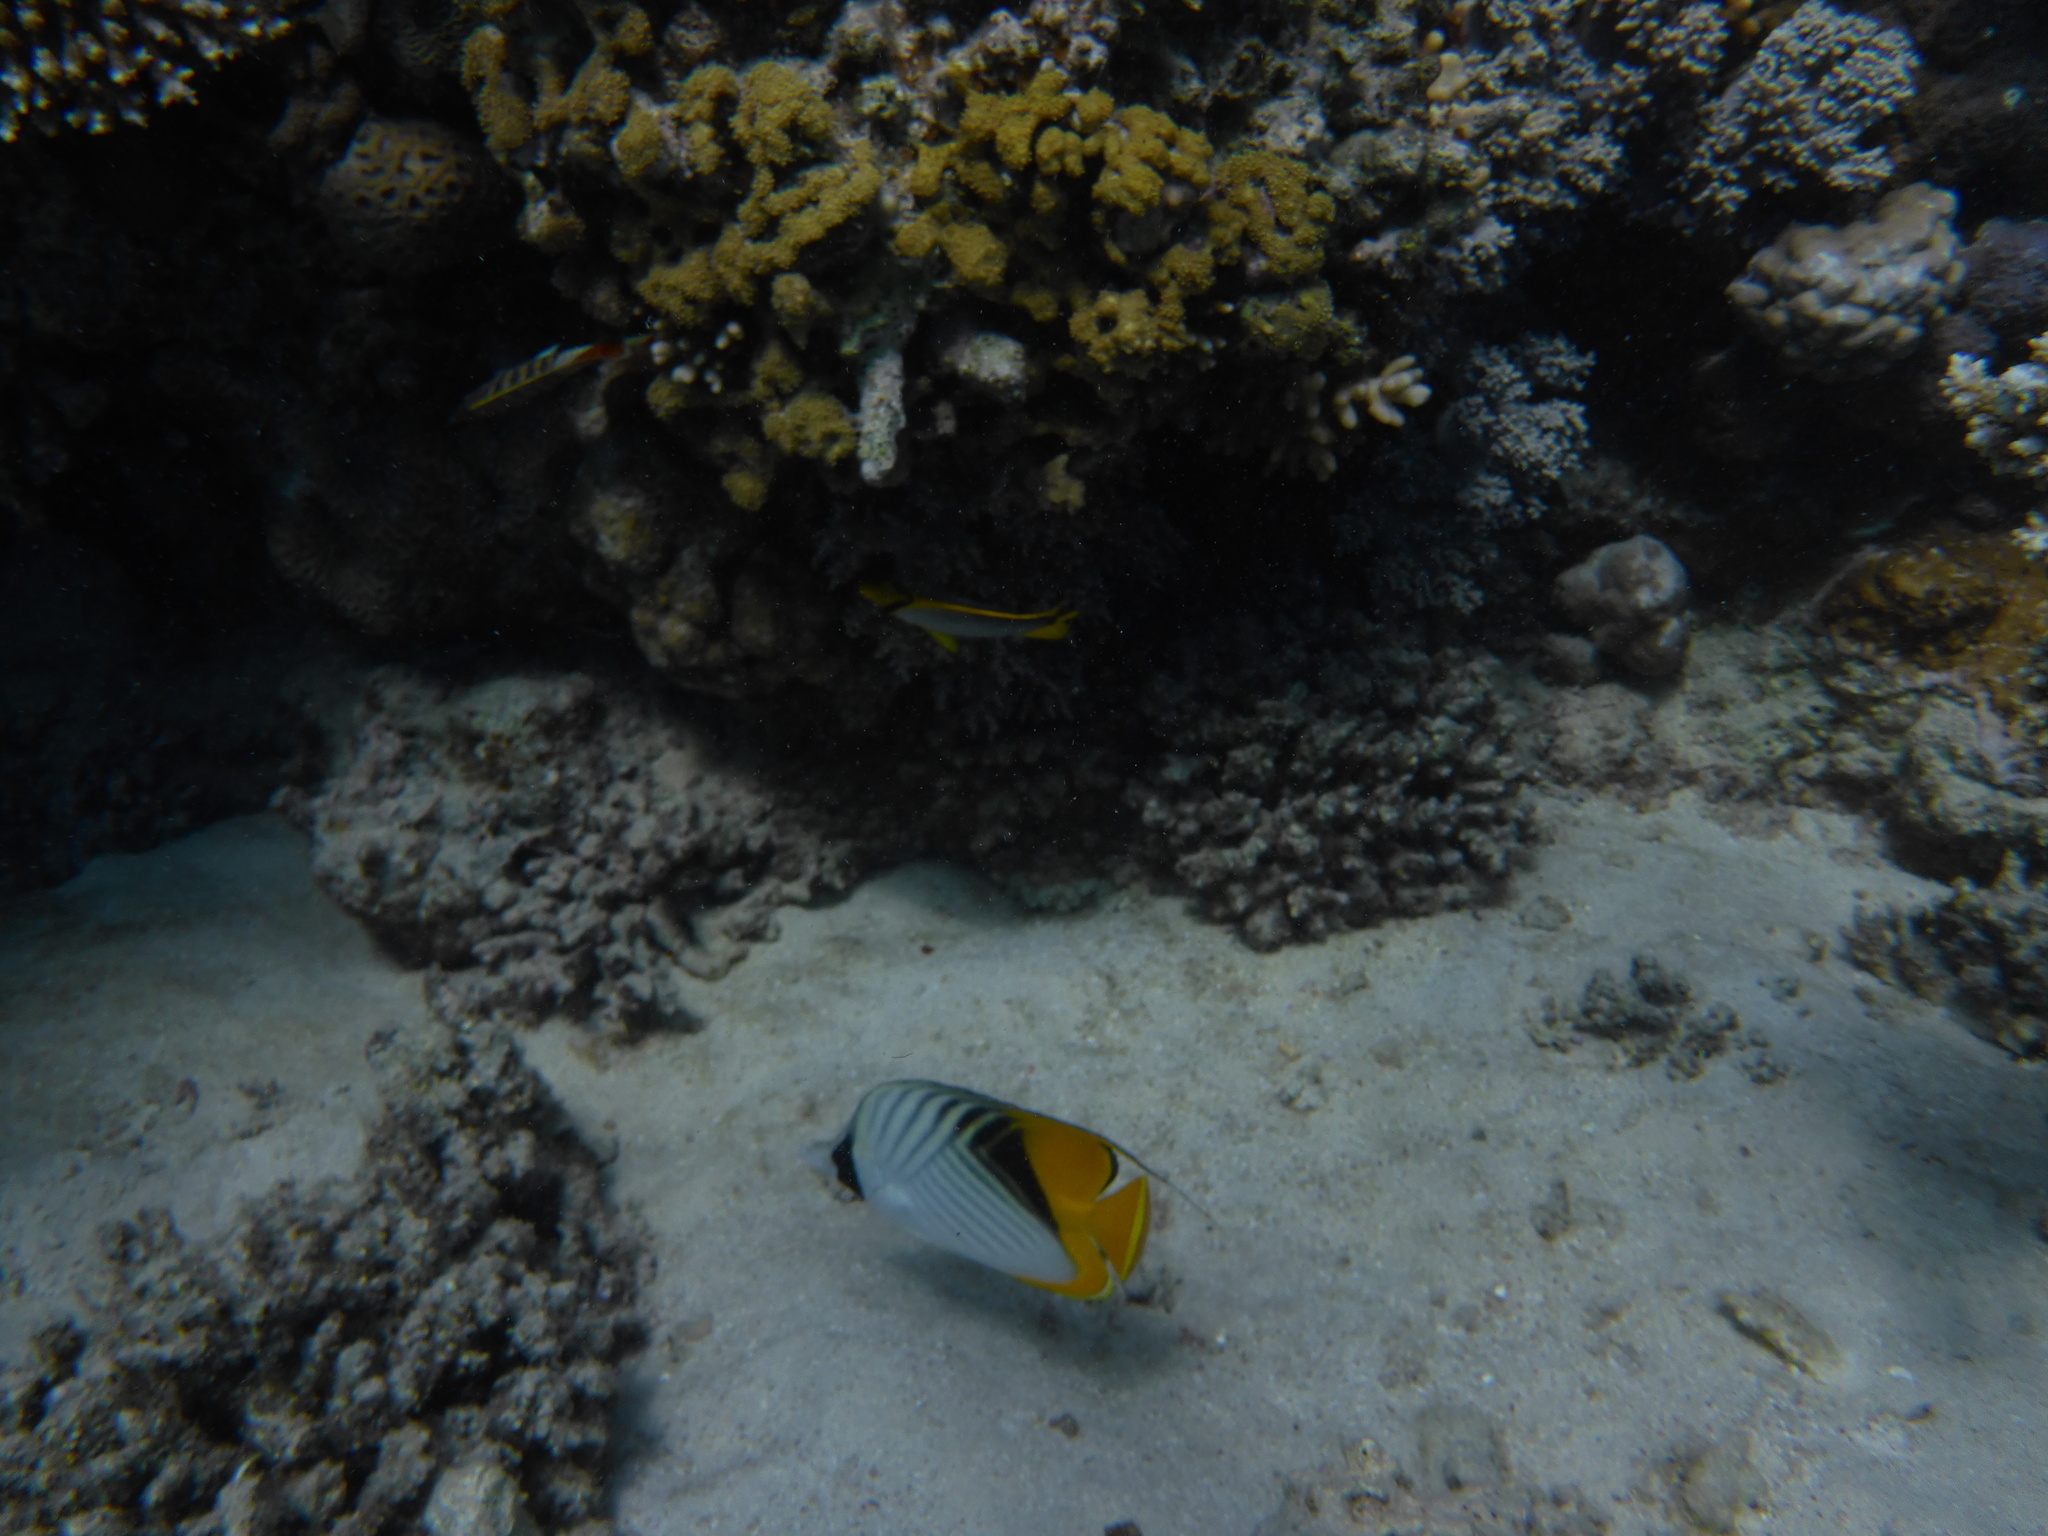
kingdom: Animalia
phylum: Chordata
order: Perciformes
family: Chaetodontidae
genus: Chaetodon
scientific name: Chaetodon auriga
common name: Threadfin butterflyfish
